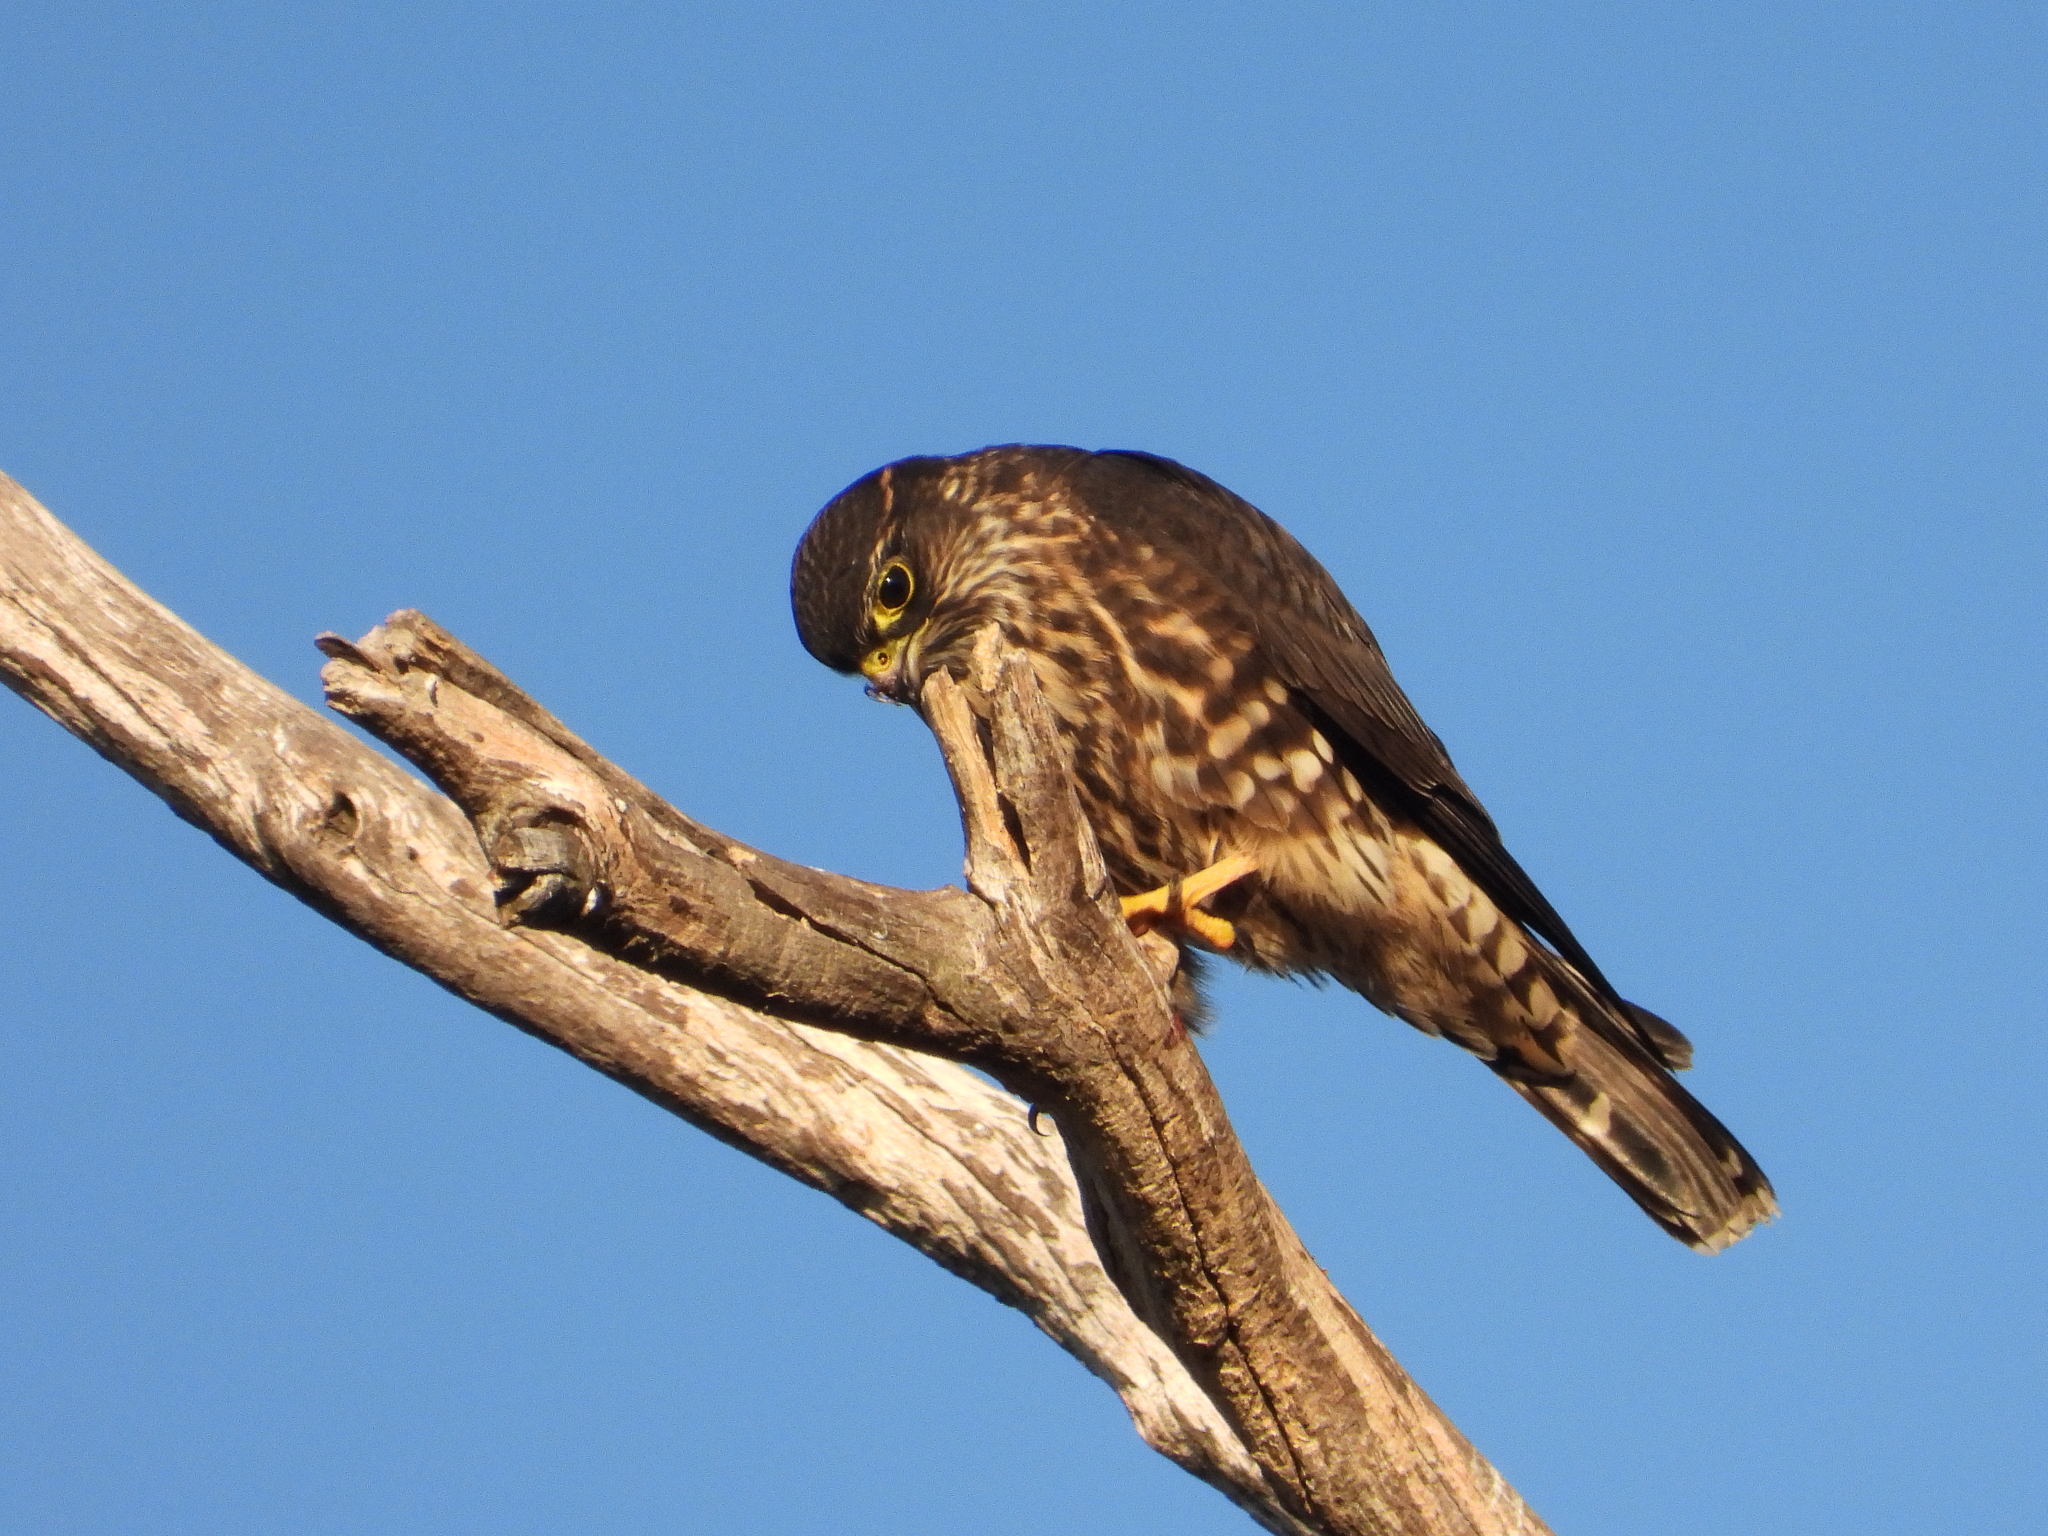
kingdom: Animalia
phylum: Chordata
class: Aves
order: Falconiformes
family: Falconidae
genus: Falco
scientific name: Falco columbarius
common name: Merlin
